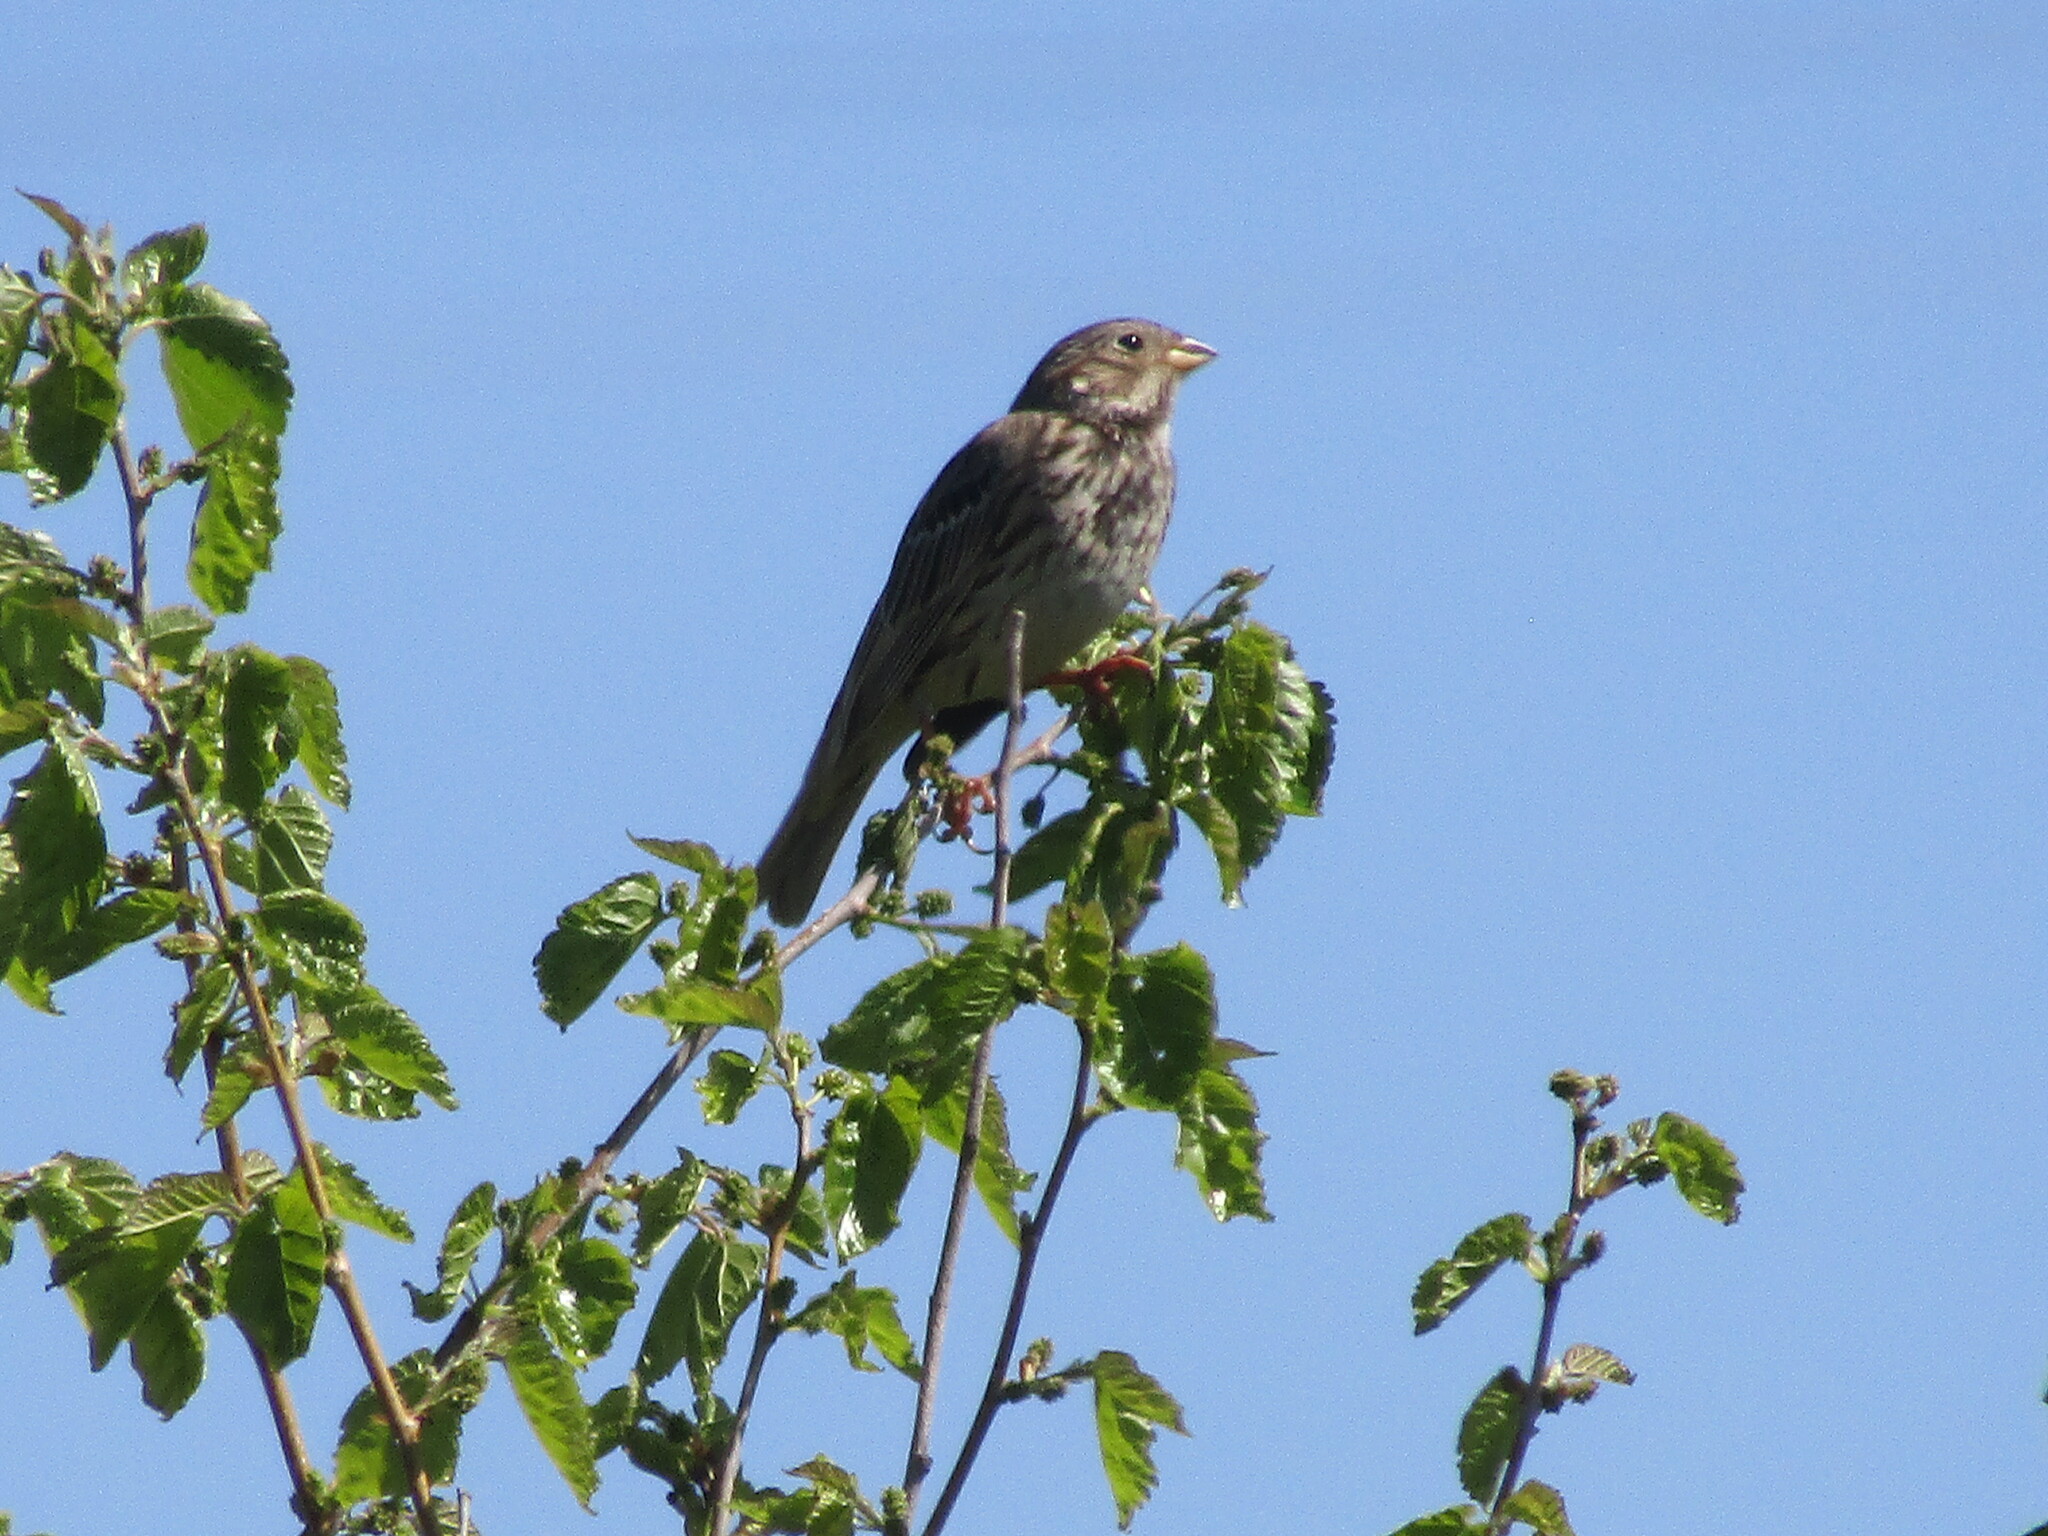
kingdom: Animalia
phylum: Chordata
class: Aves
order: Passeriformes
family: Emberizidae
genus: Emberiza
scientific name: Emberiza calandra
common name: Corn bunting
